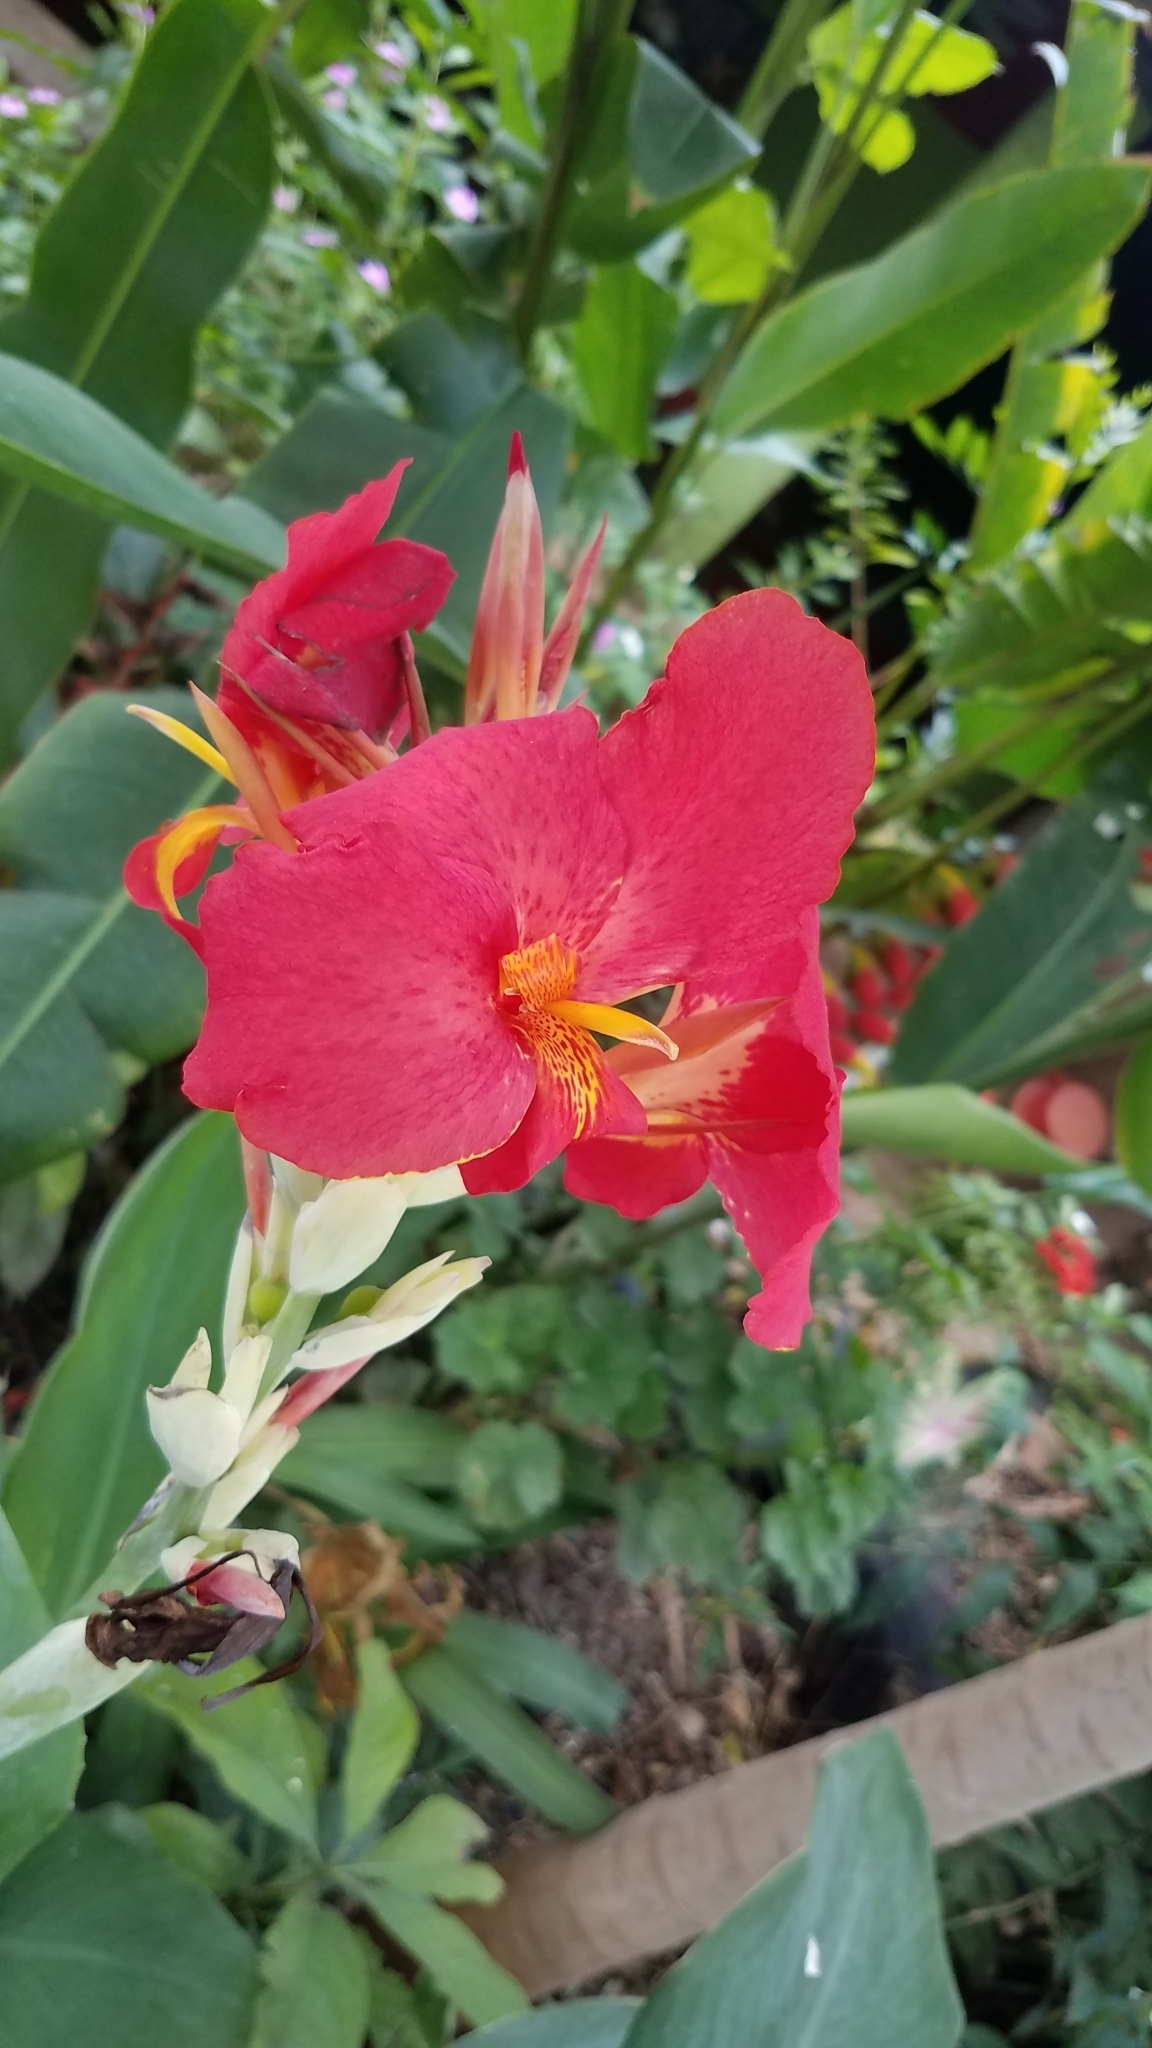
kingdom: Plantae
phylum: Tracheophyta
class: Liliopsida
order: Zingiberales
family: Cannaceae
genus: Canna
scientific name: Canna hybrida
